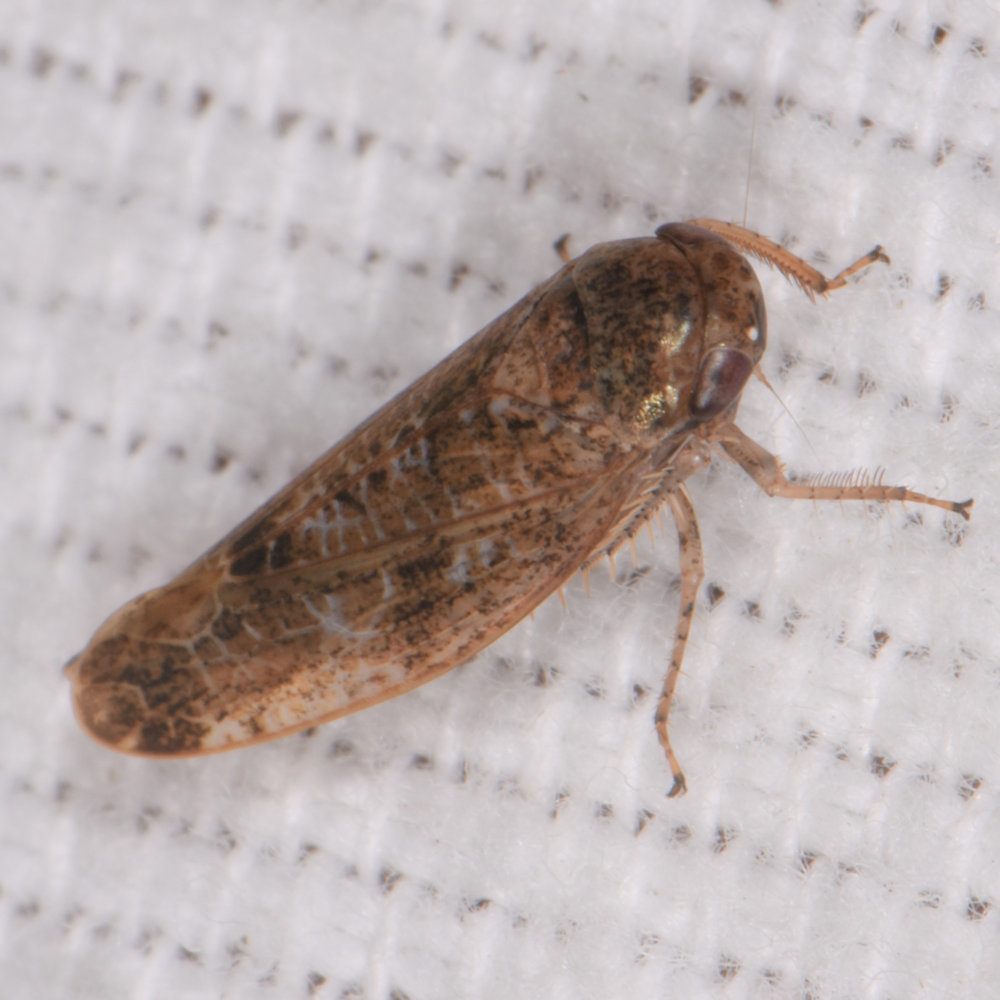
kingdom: Animalia
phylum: Arthropoda
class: Insecta
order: Hemiptera
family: Cicadellidae
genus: Allygidius
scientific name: Allygidius atomarius
